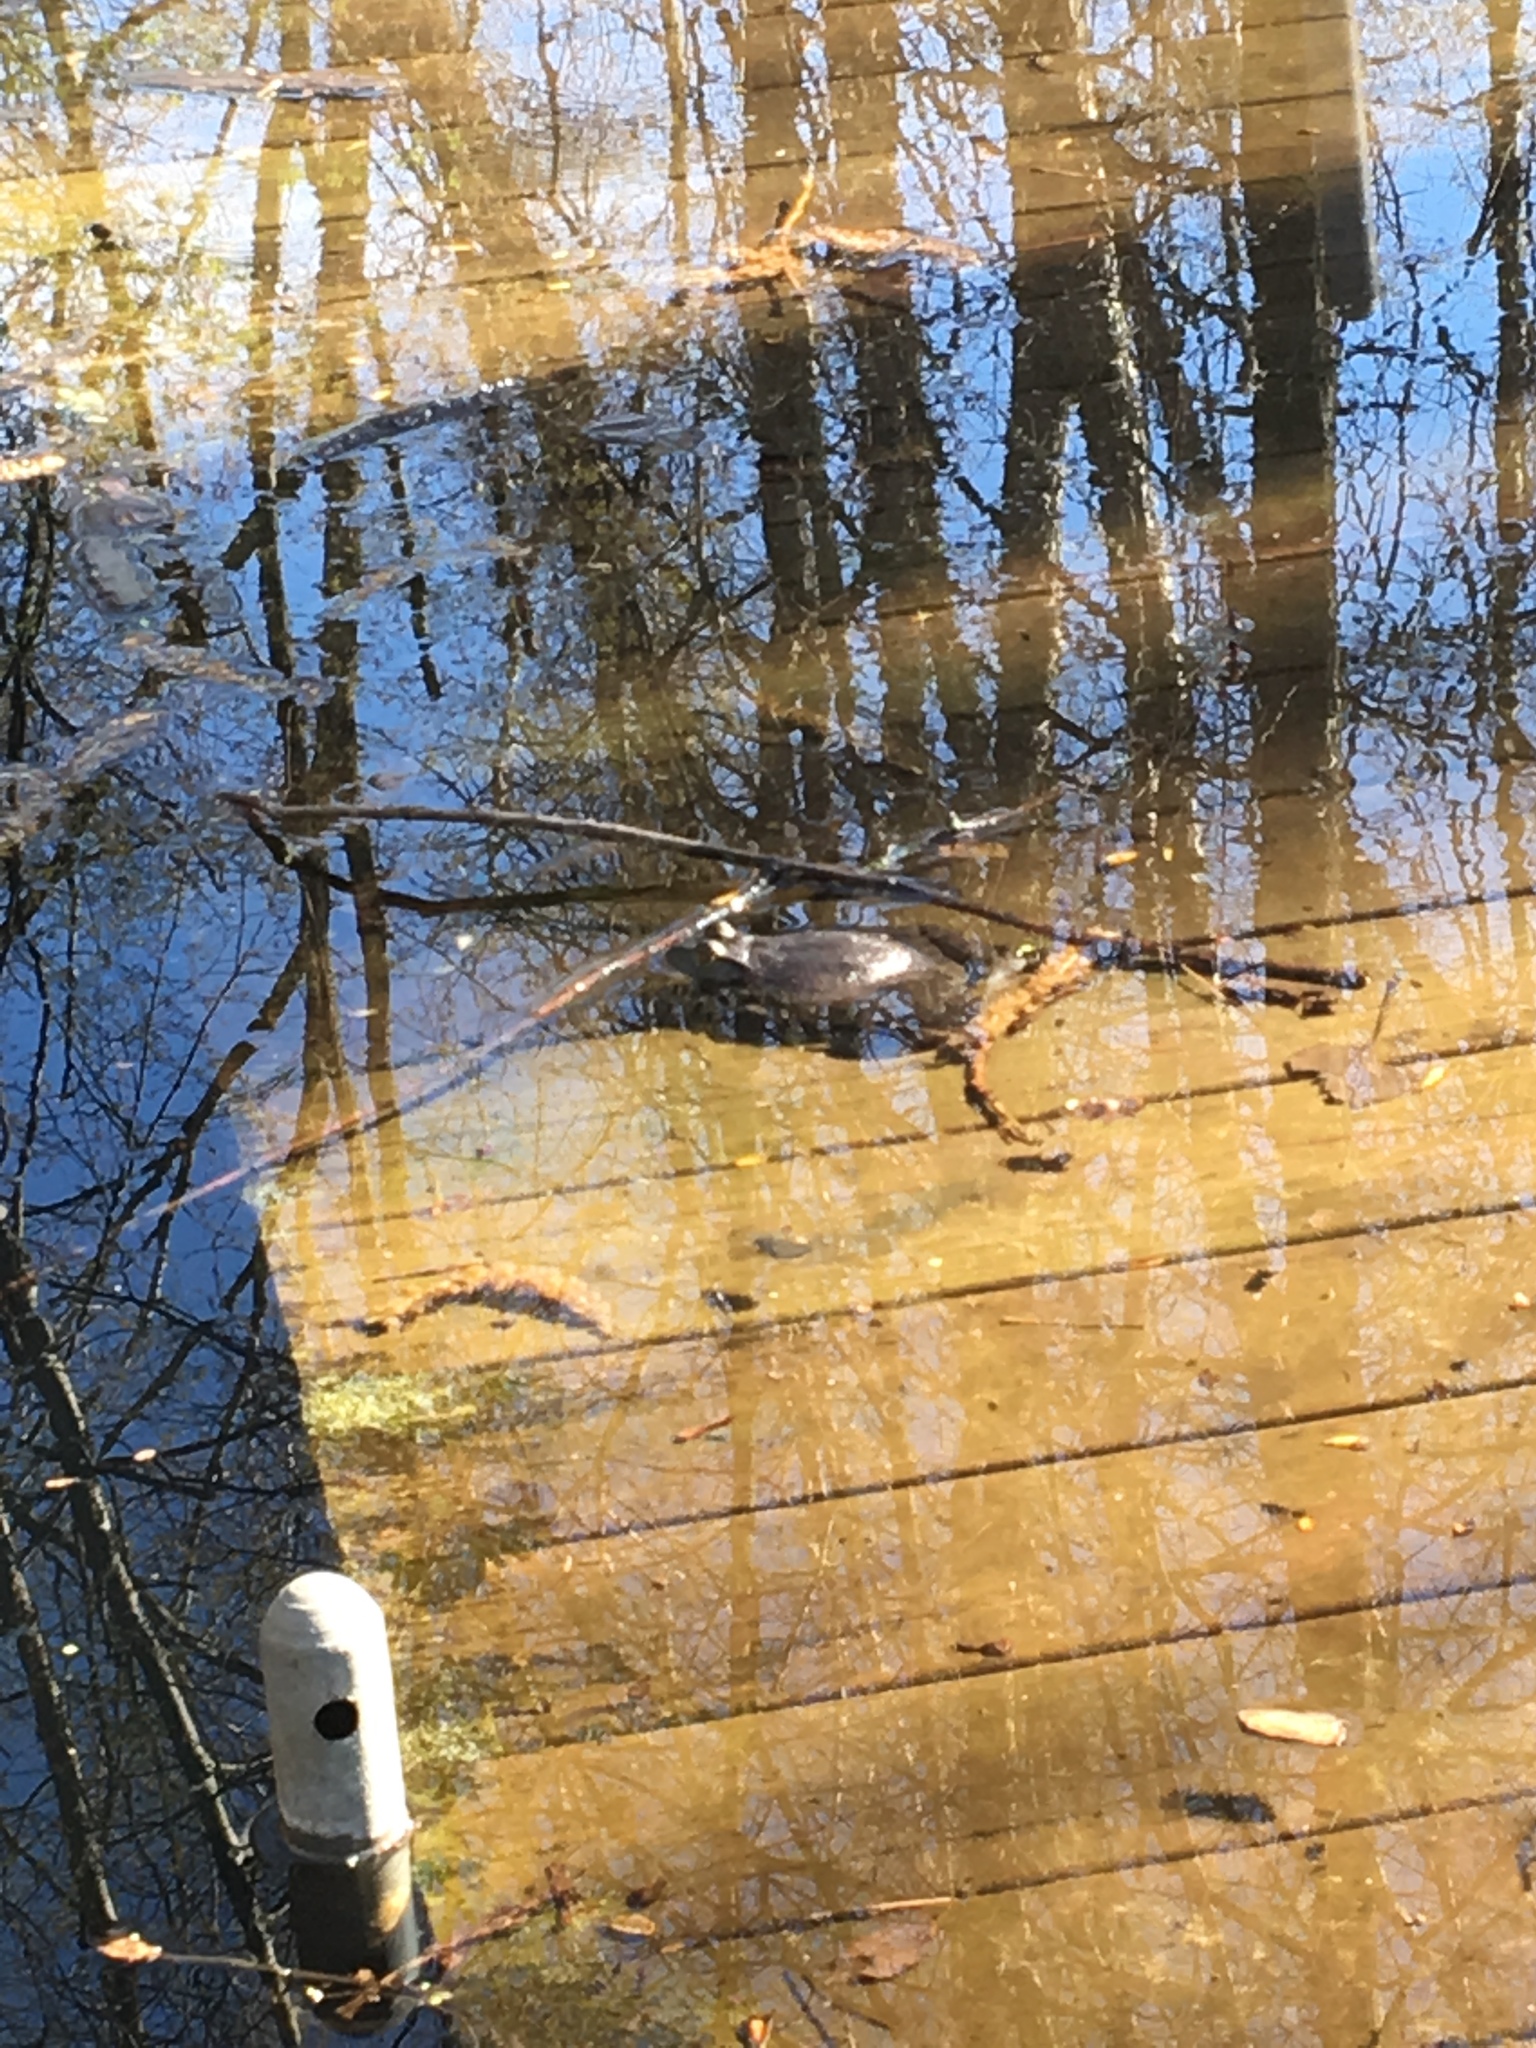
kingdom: Animalia
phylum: Chordata
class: Amphibia
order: Anura
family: Ranidae
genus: Lithobates
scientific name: Lithobates catesbeianus
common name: American bullfrog
